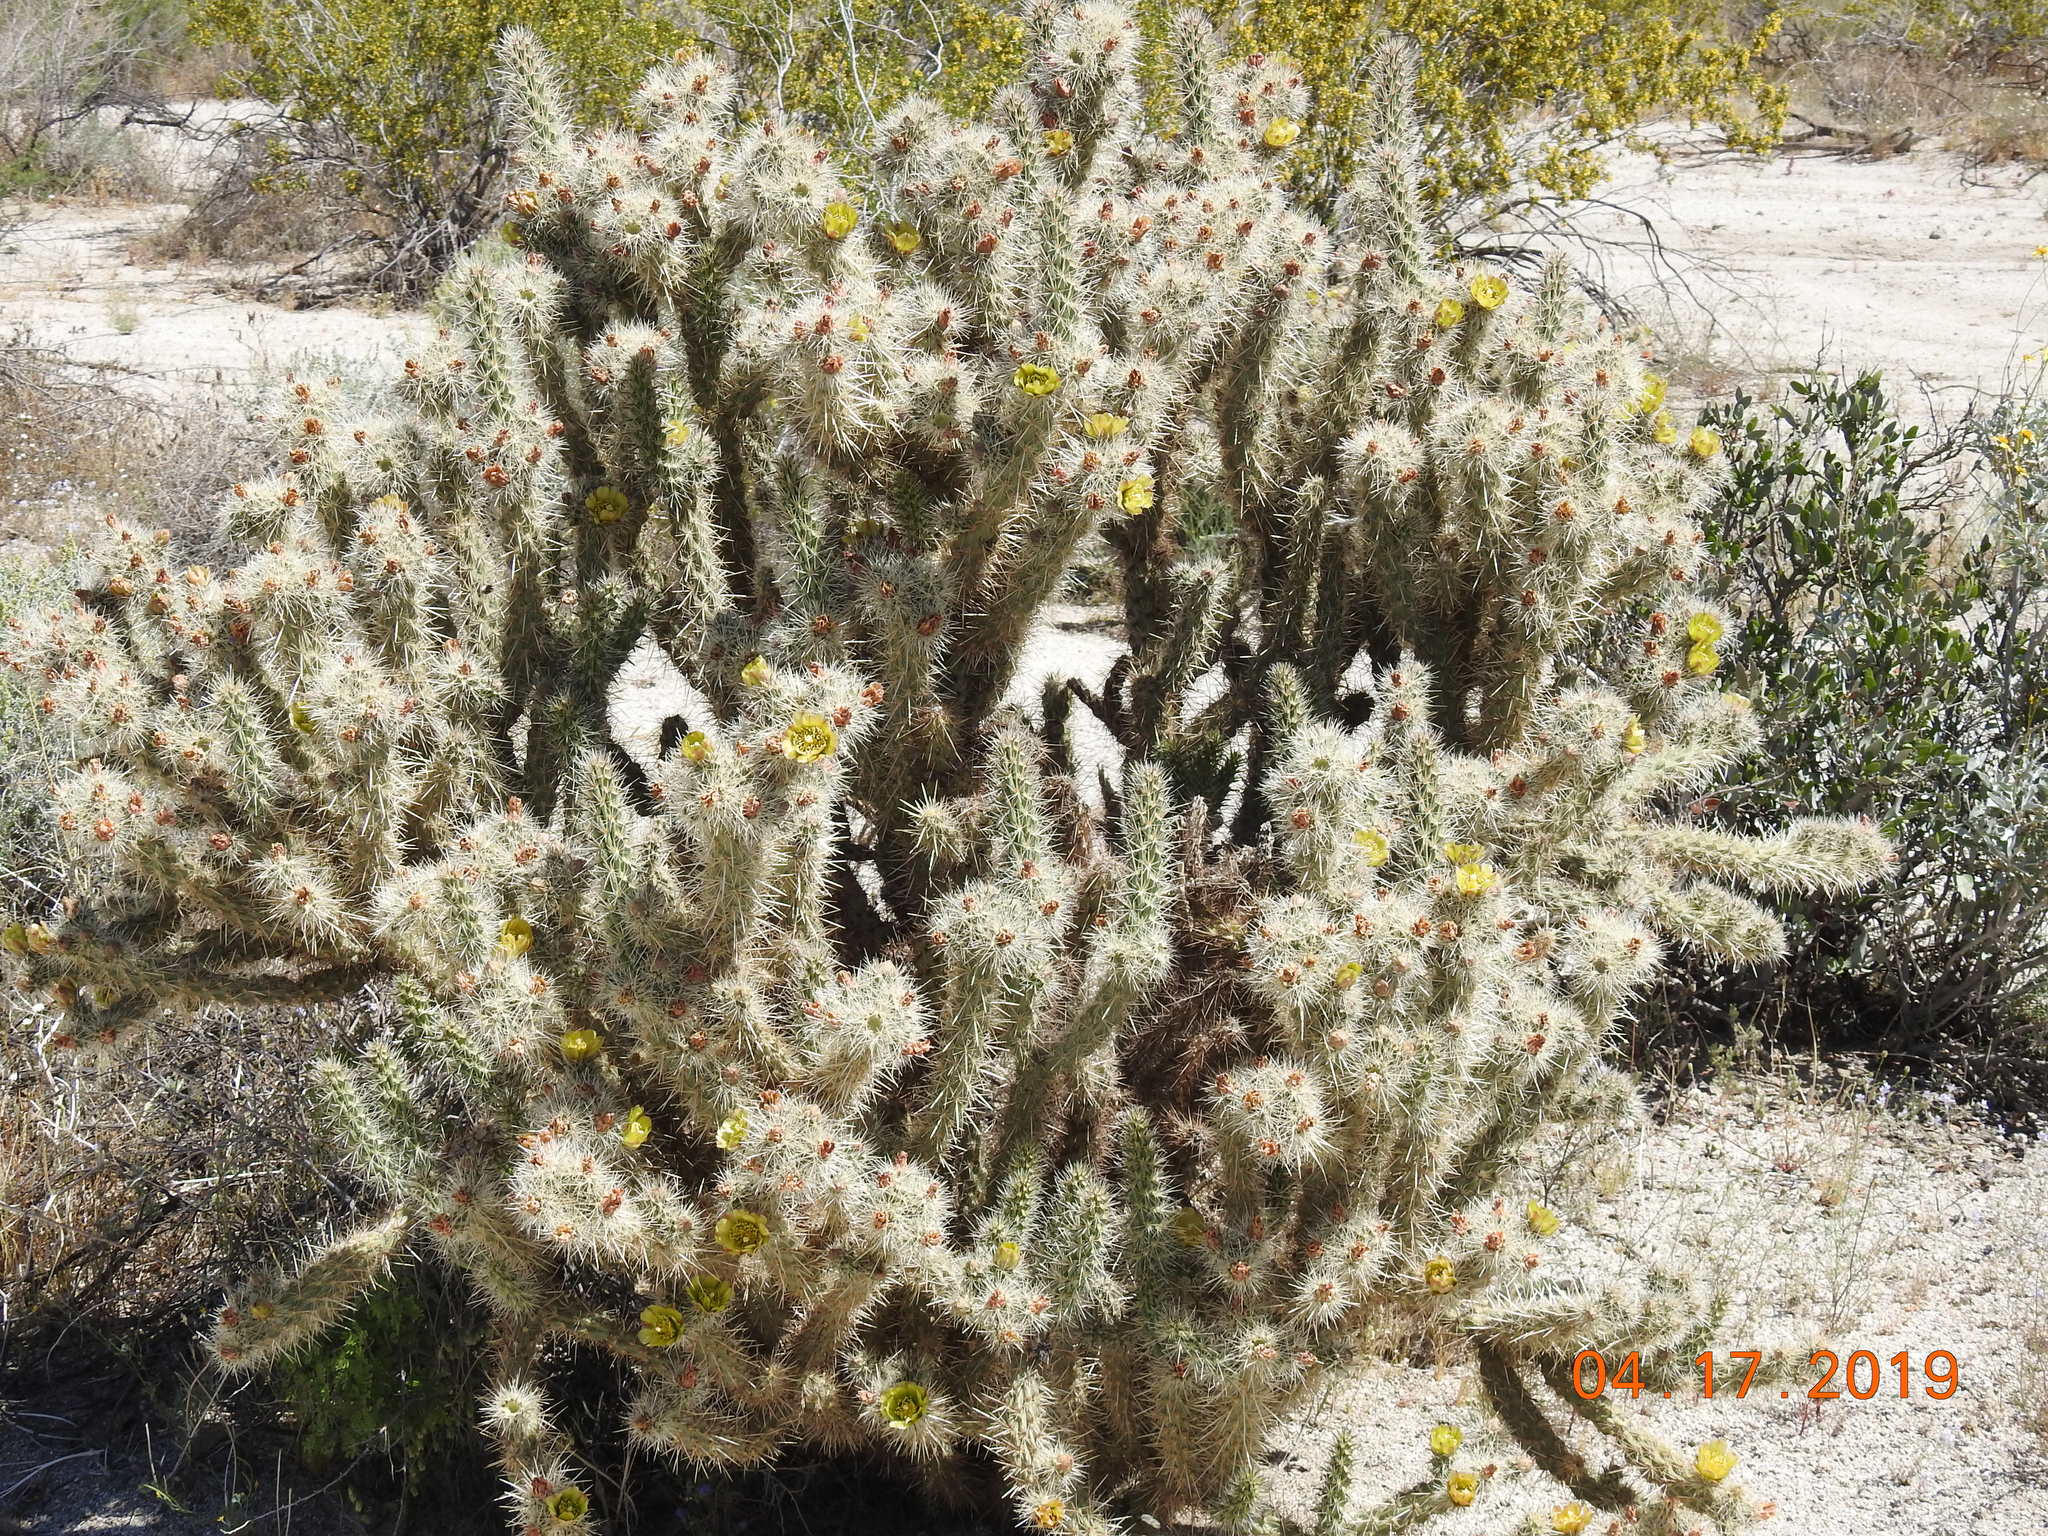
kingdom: Plantae
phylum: Tracheophyta
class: Magnoliopsida
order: Caryophyllales
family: Cactaceae
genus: Cylindropuntia
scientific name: Cylindropuntia echinocarpa
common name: Ground cholla
